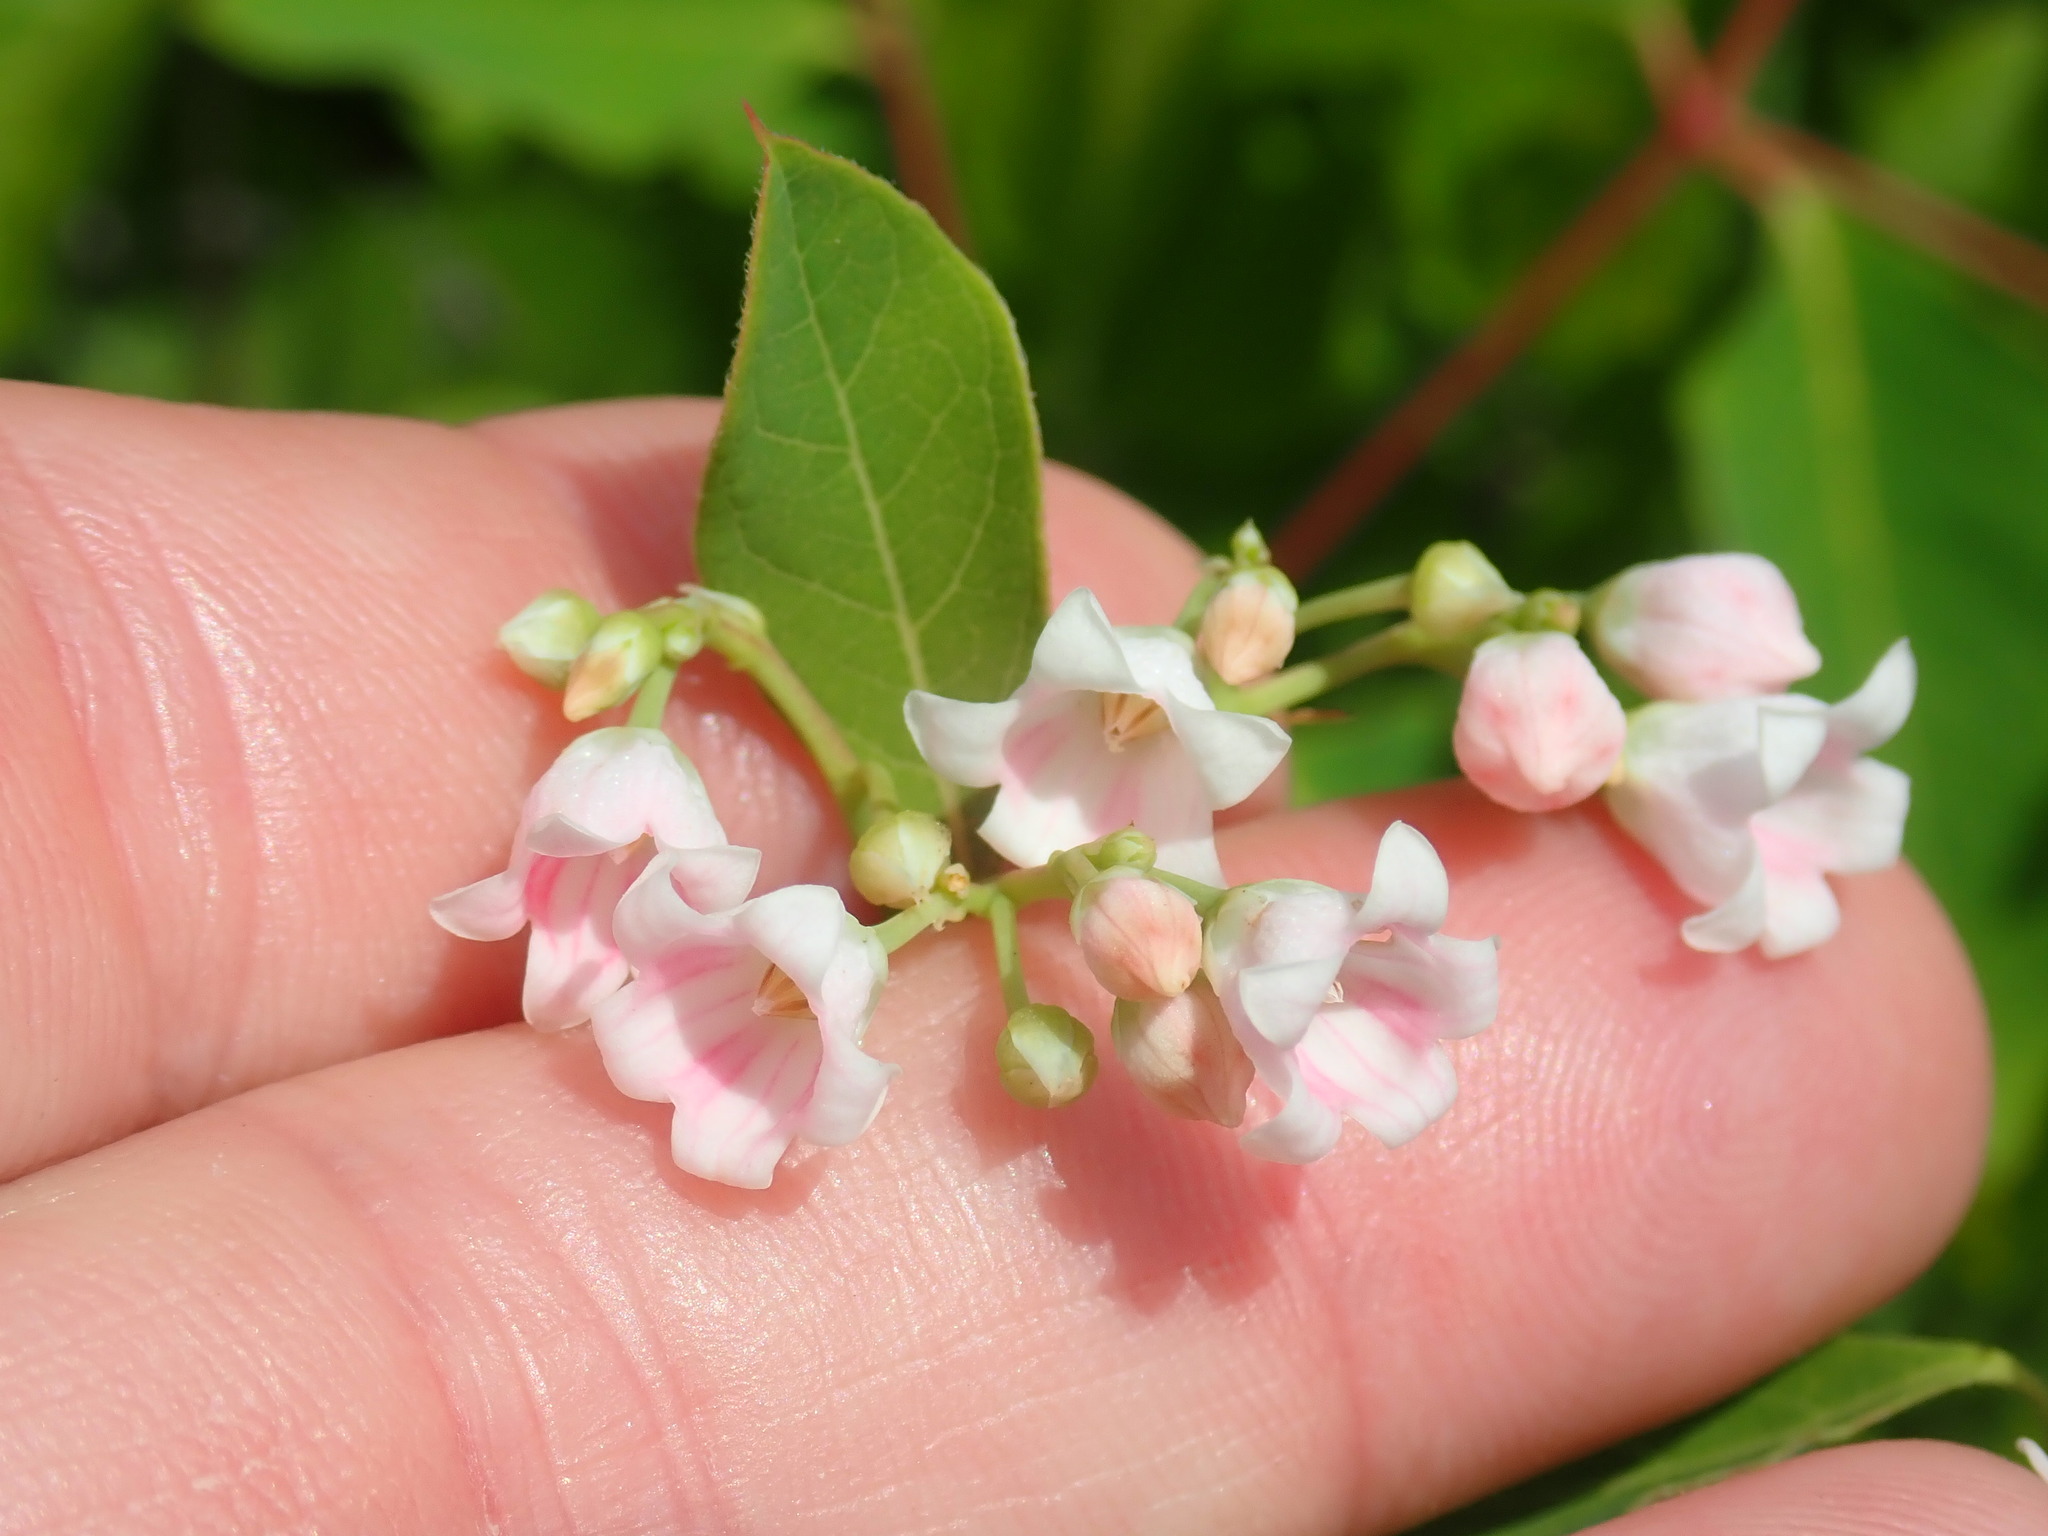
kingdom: Plantae
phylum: Tracheophyta
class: Magnoliopsida
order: Gentianales
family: Apocynaceae
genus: Apocynum
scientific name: Apocynum androsaemifolium
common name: Spreading dogbane
